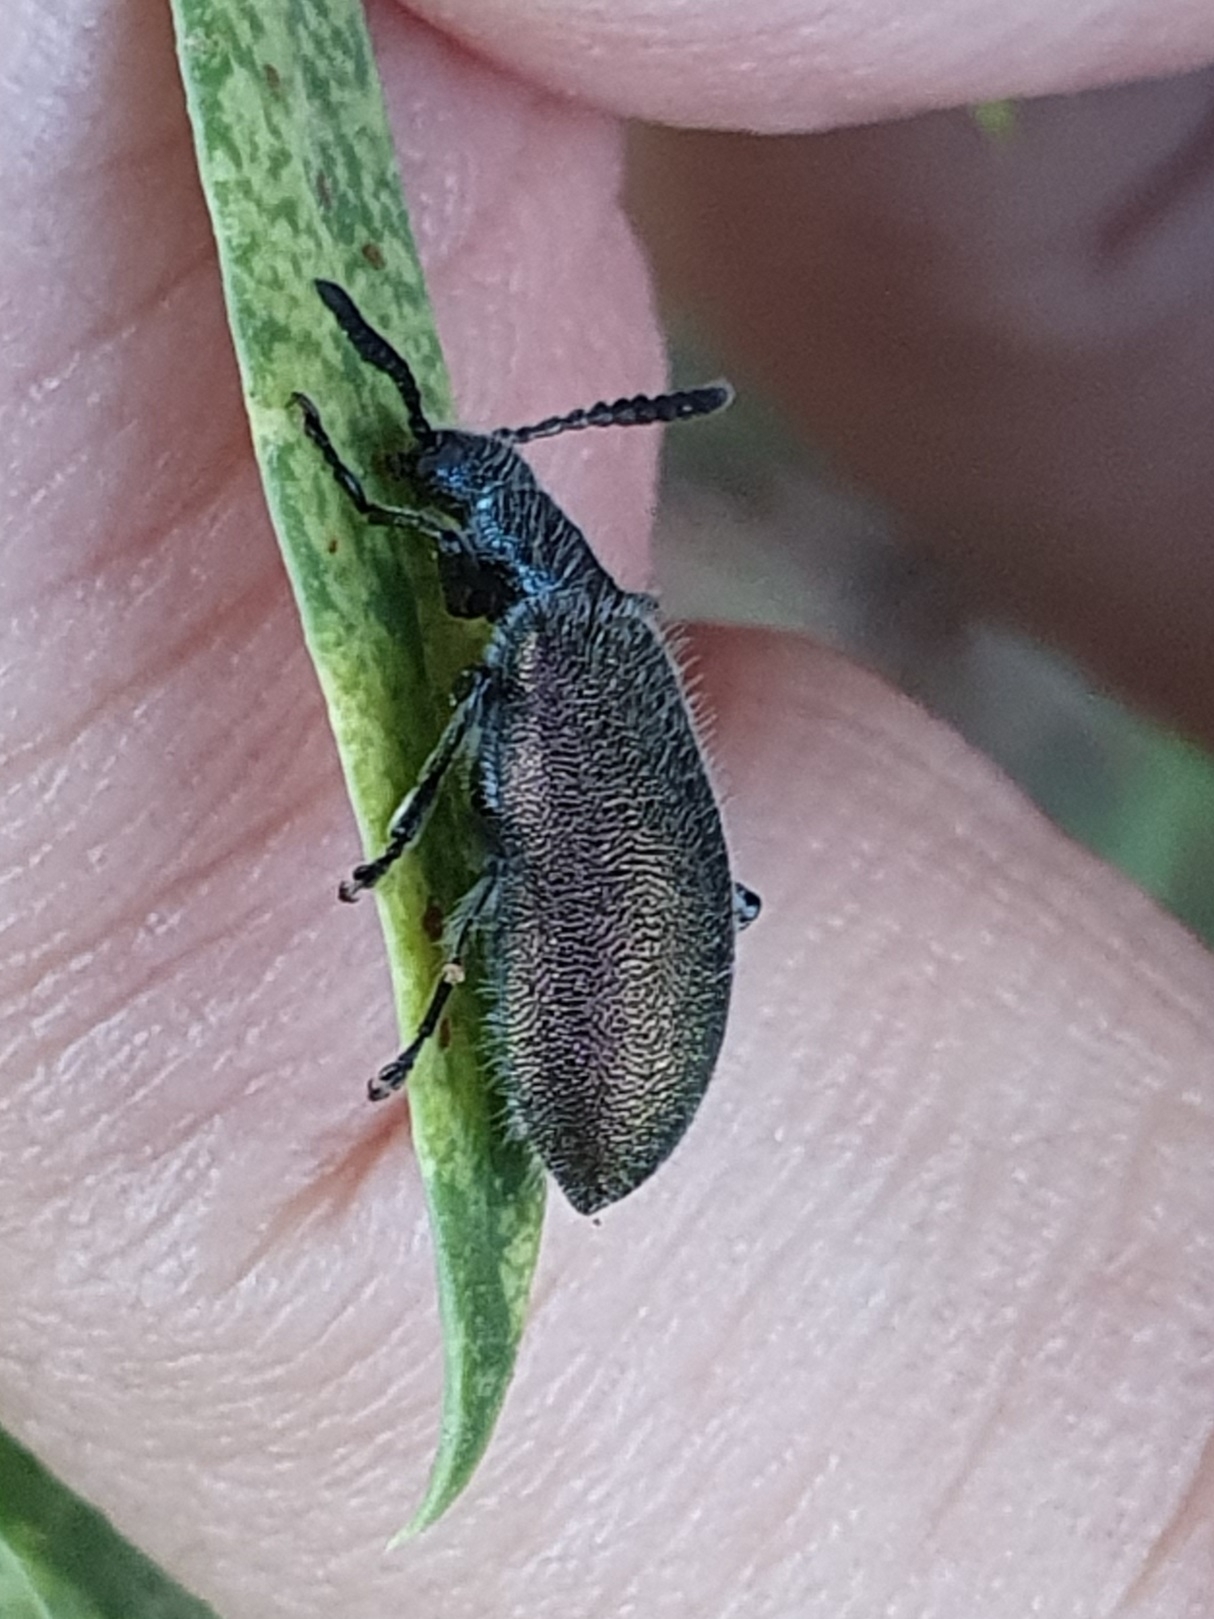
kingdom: Animalia
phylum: Arthropoda
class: Insecta
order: Coleoptera
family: Tenebrionidae
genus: Chrysolagria
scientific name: Chrysolagria
